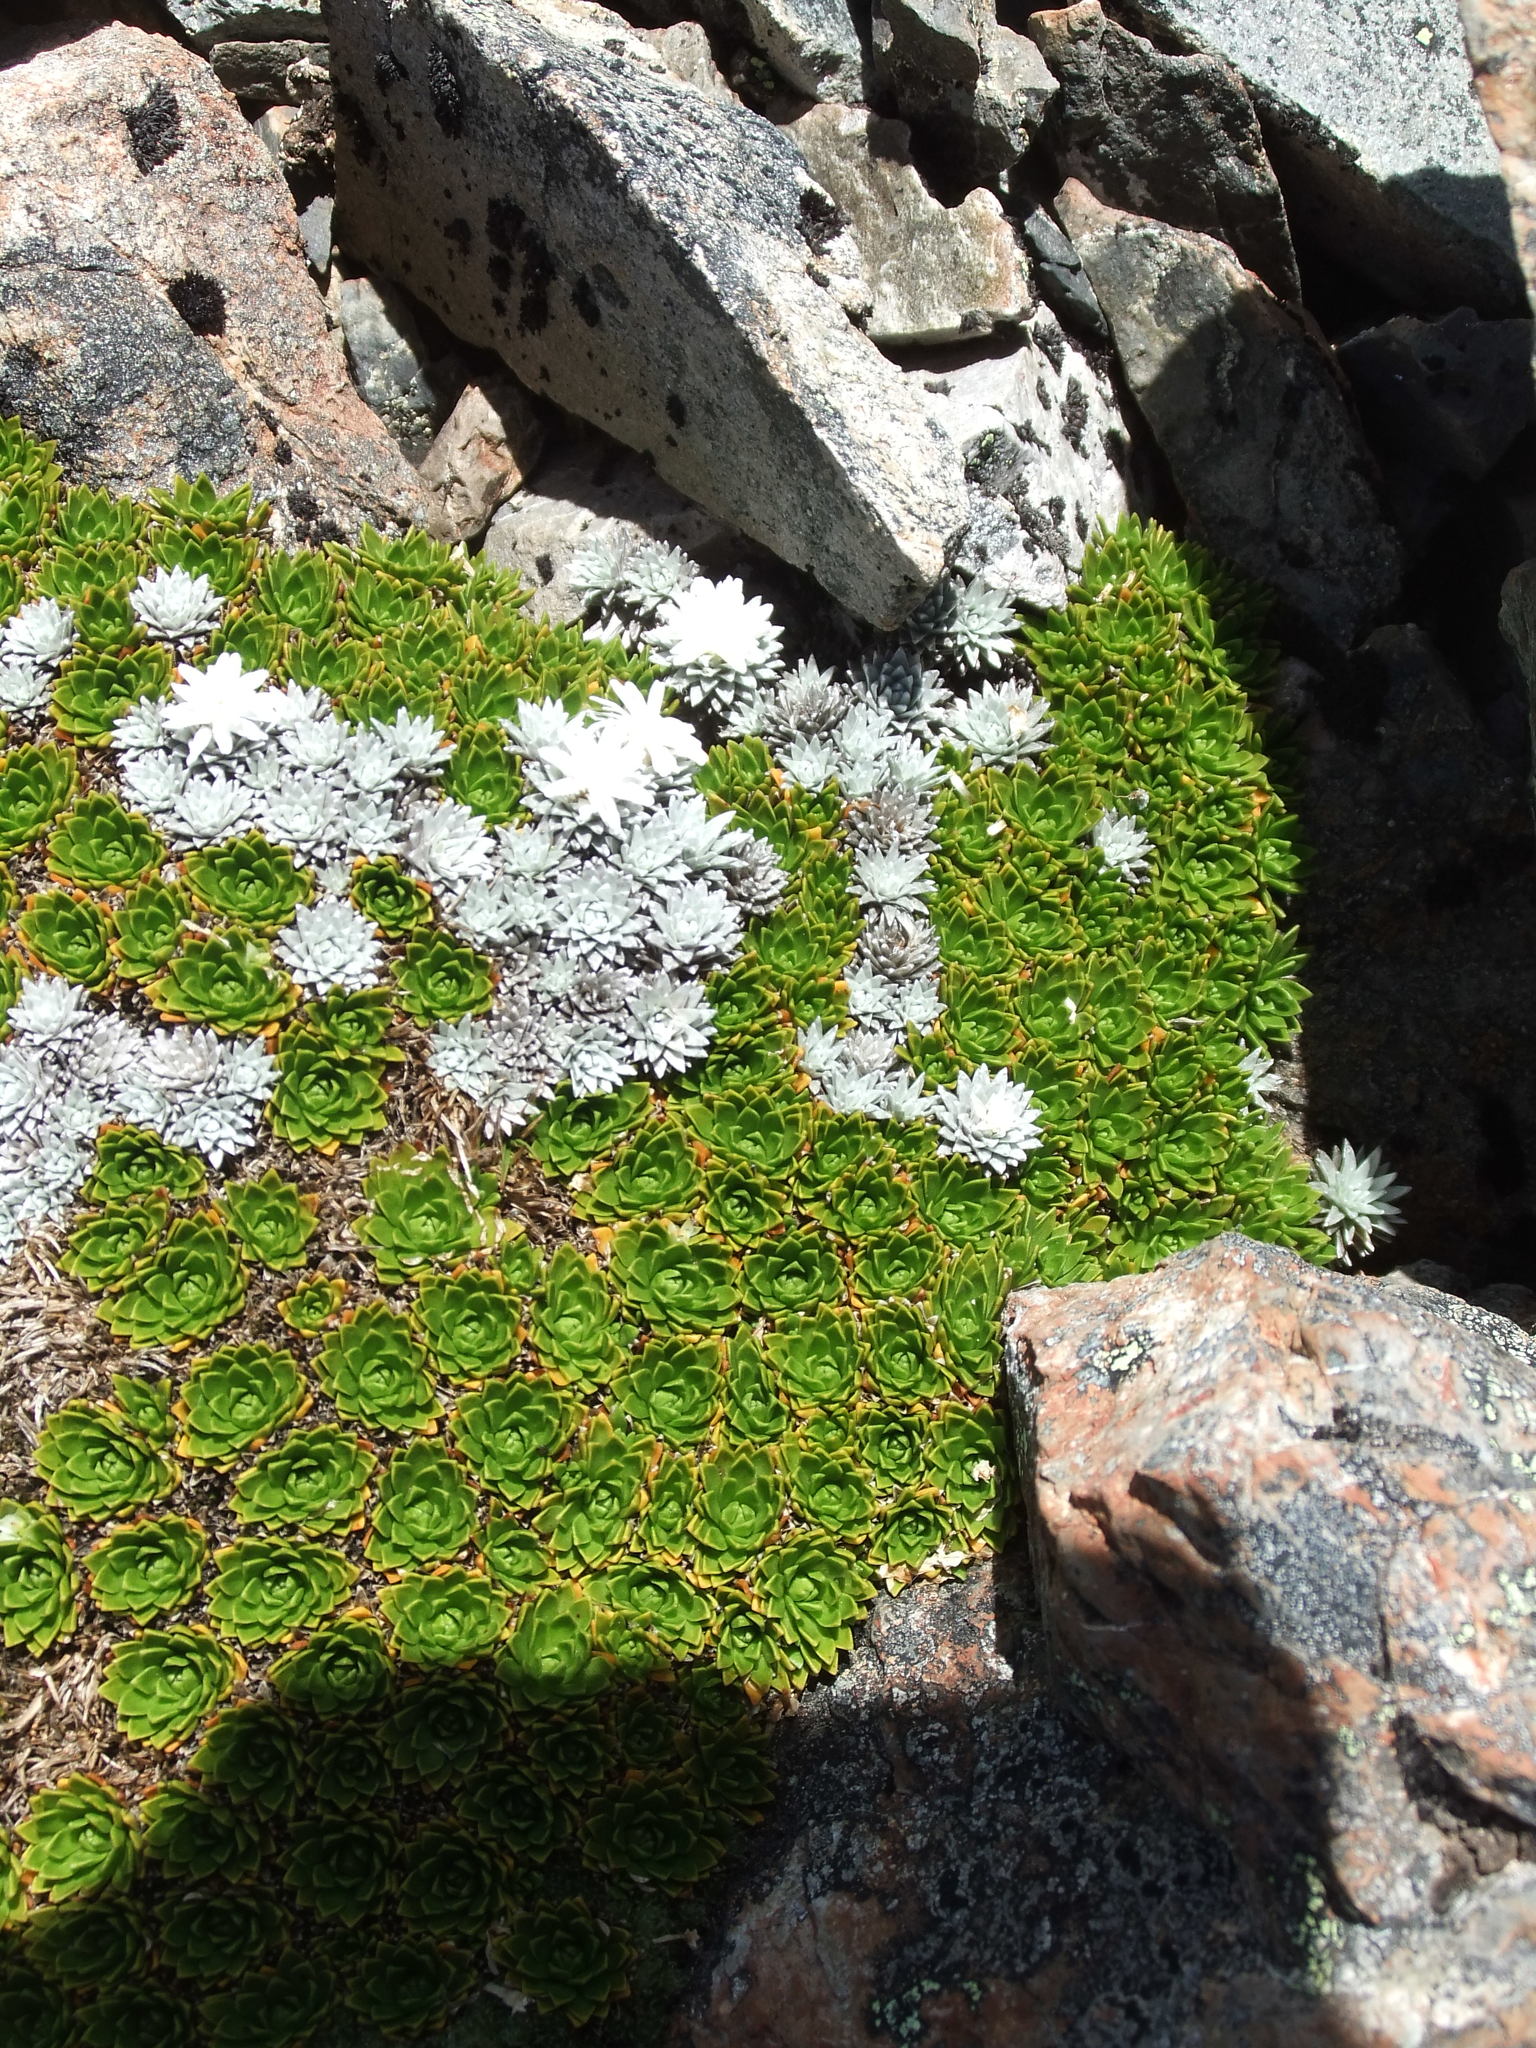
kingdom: Plantae
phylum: Tracheophyta
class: Magnoliopsida
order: Asterales
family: Asteraceae
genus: Raoulia
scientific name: Raoulia grandiflora
